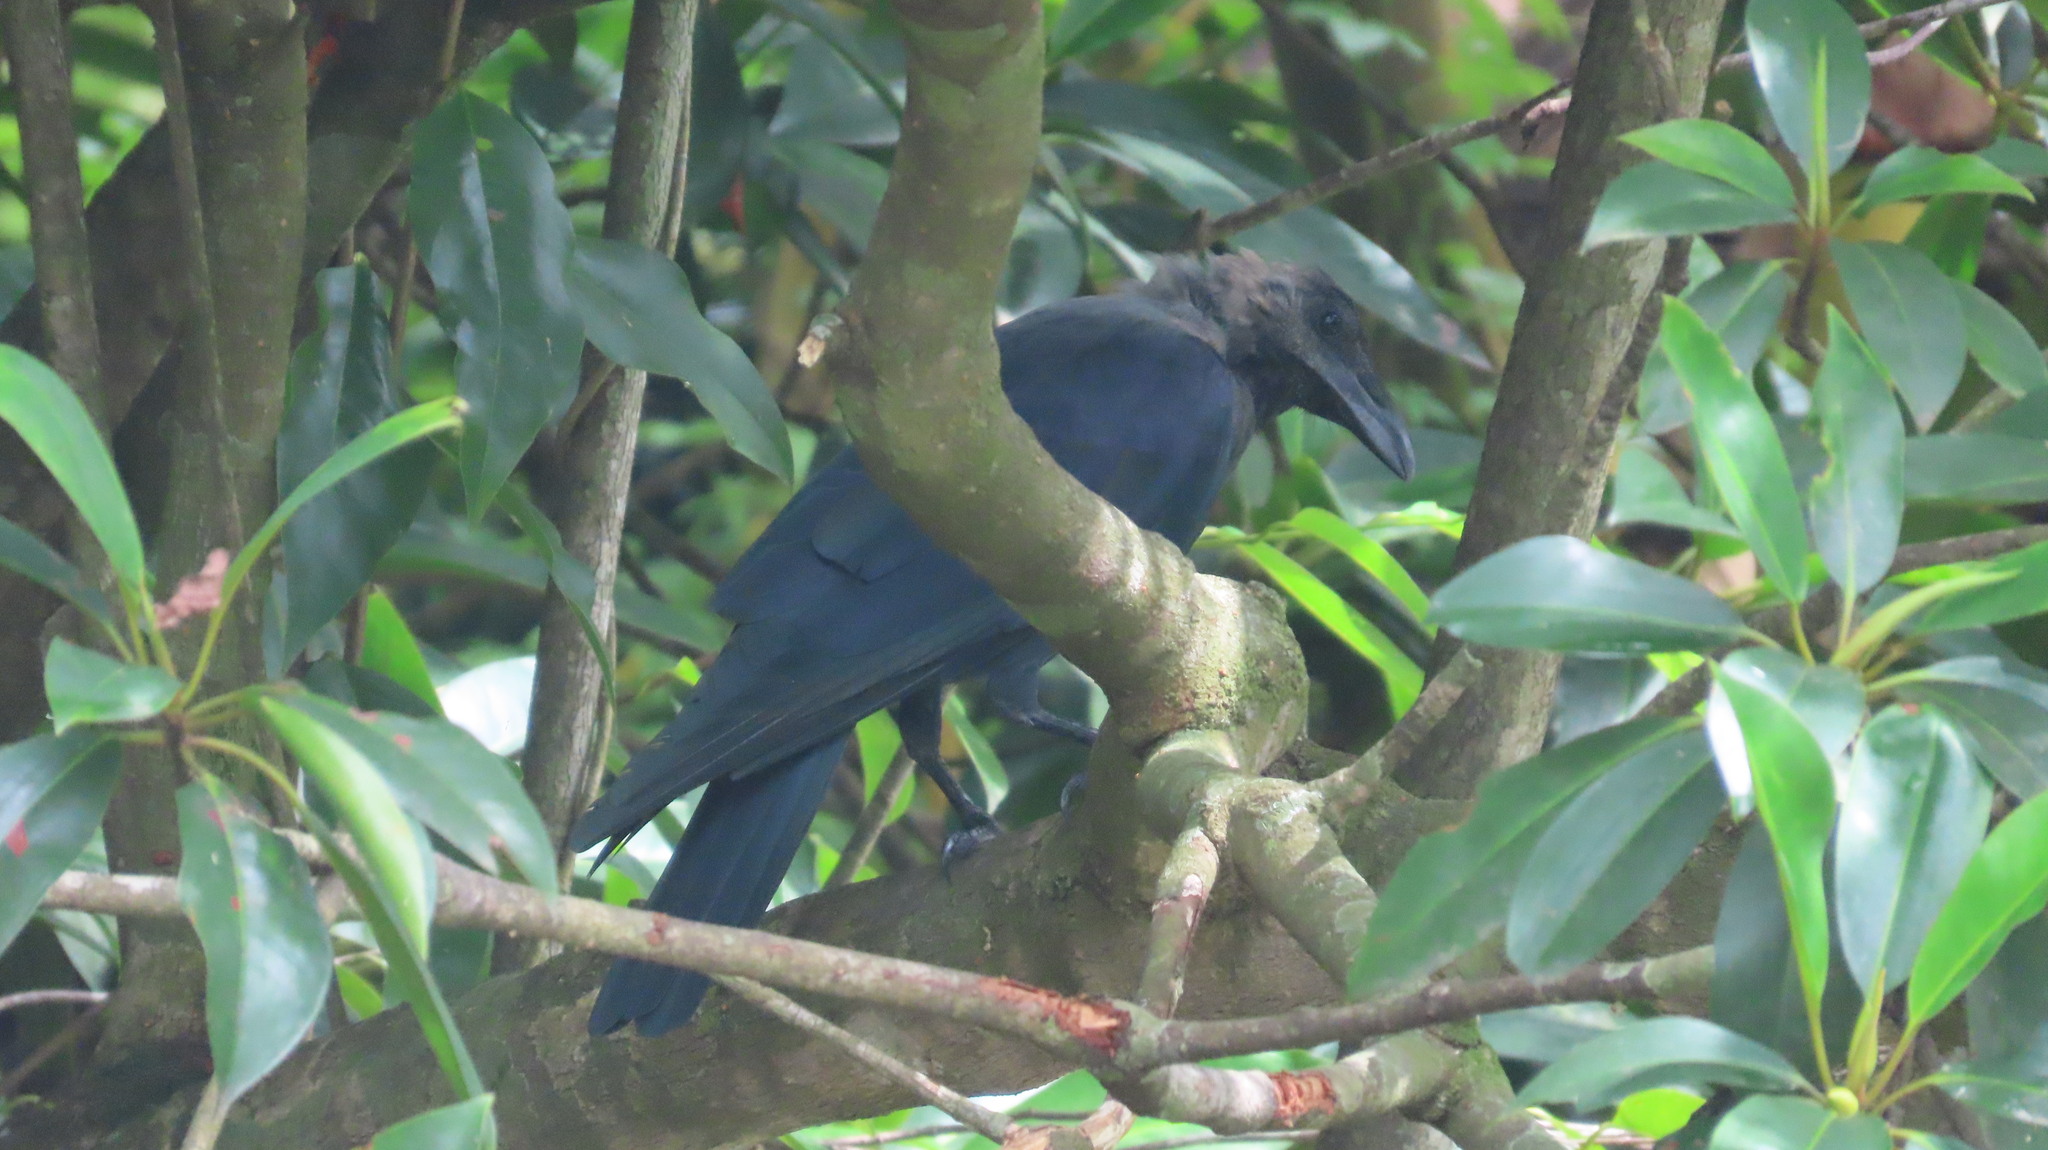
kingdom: Animalia
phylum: Chordata
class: Aves
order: Passeriformes
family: Corvidae
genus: Corvus
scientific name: Corvus splendens
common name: House crow
